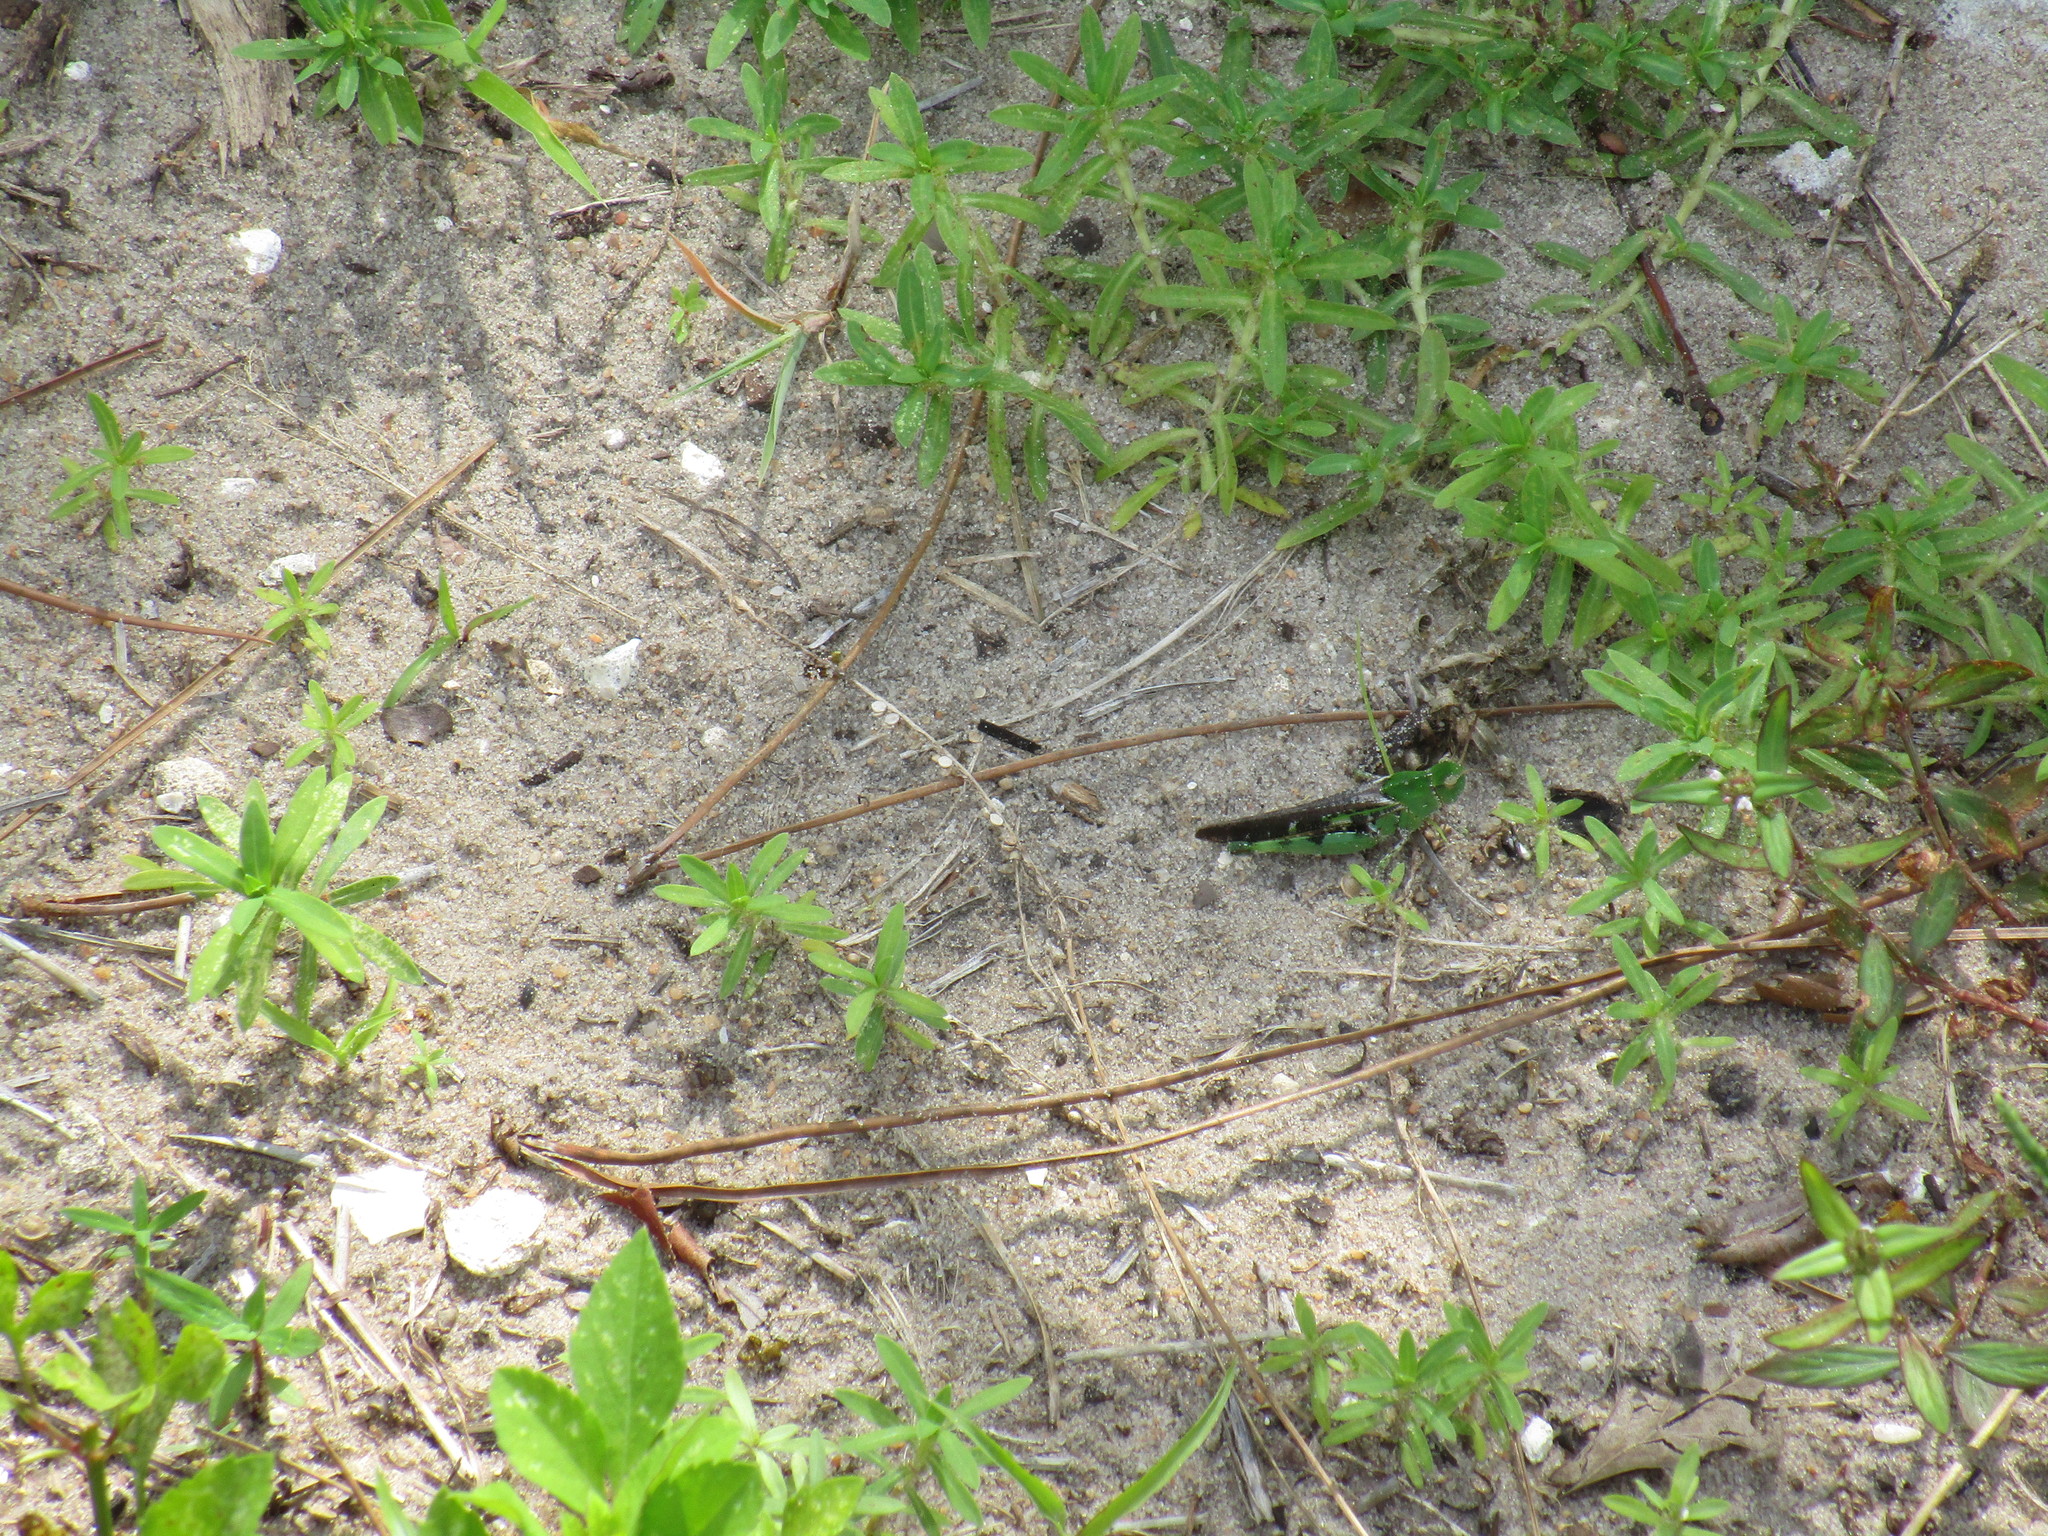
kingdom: Animalia
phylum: Arthropoda
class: Insecta
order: Orthoptera
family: Acrididae
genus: Chortophaga
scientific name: Chortophaga australior
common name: Southern green-striped grasshopper
